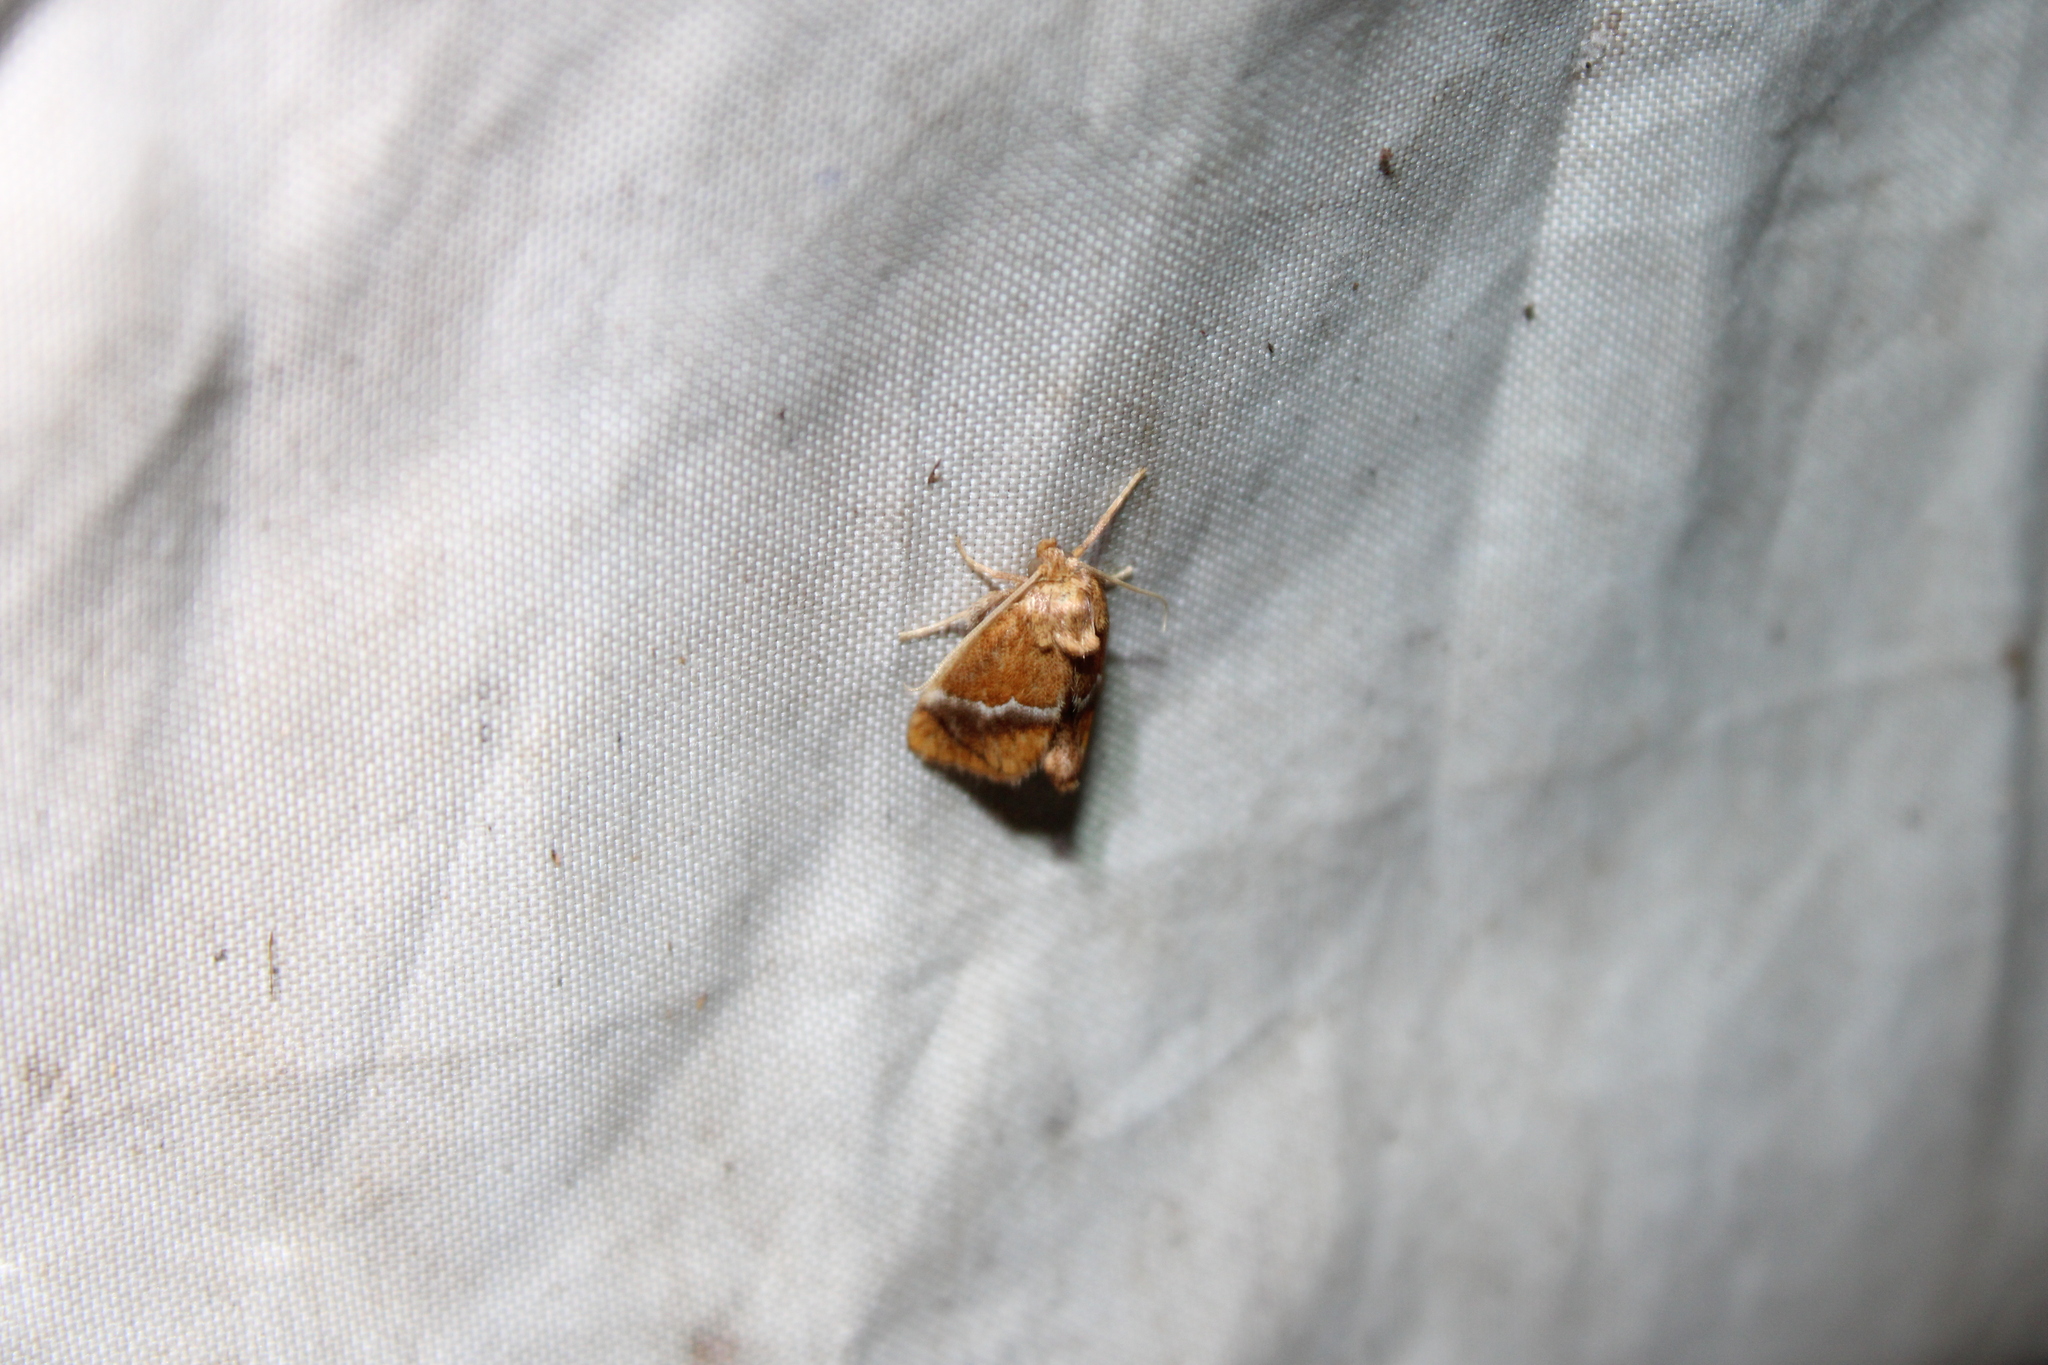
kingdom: Animalia
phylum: Arthropoda
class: Insecta
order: Lepidoptera
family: Limacodidae
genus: Lithacodes
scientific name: Lithacodes fasciola
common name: Yellow-shouldered slug moth
